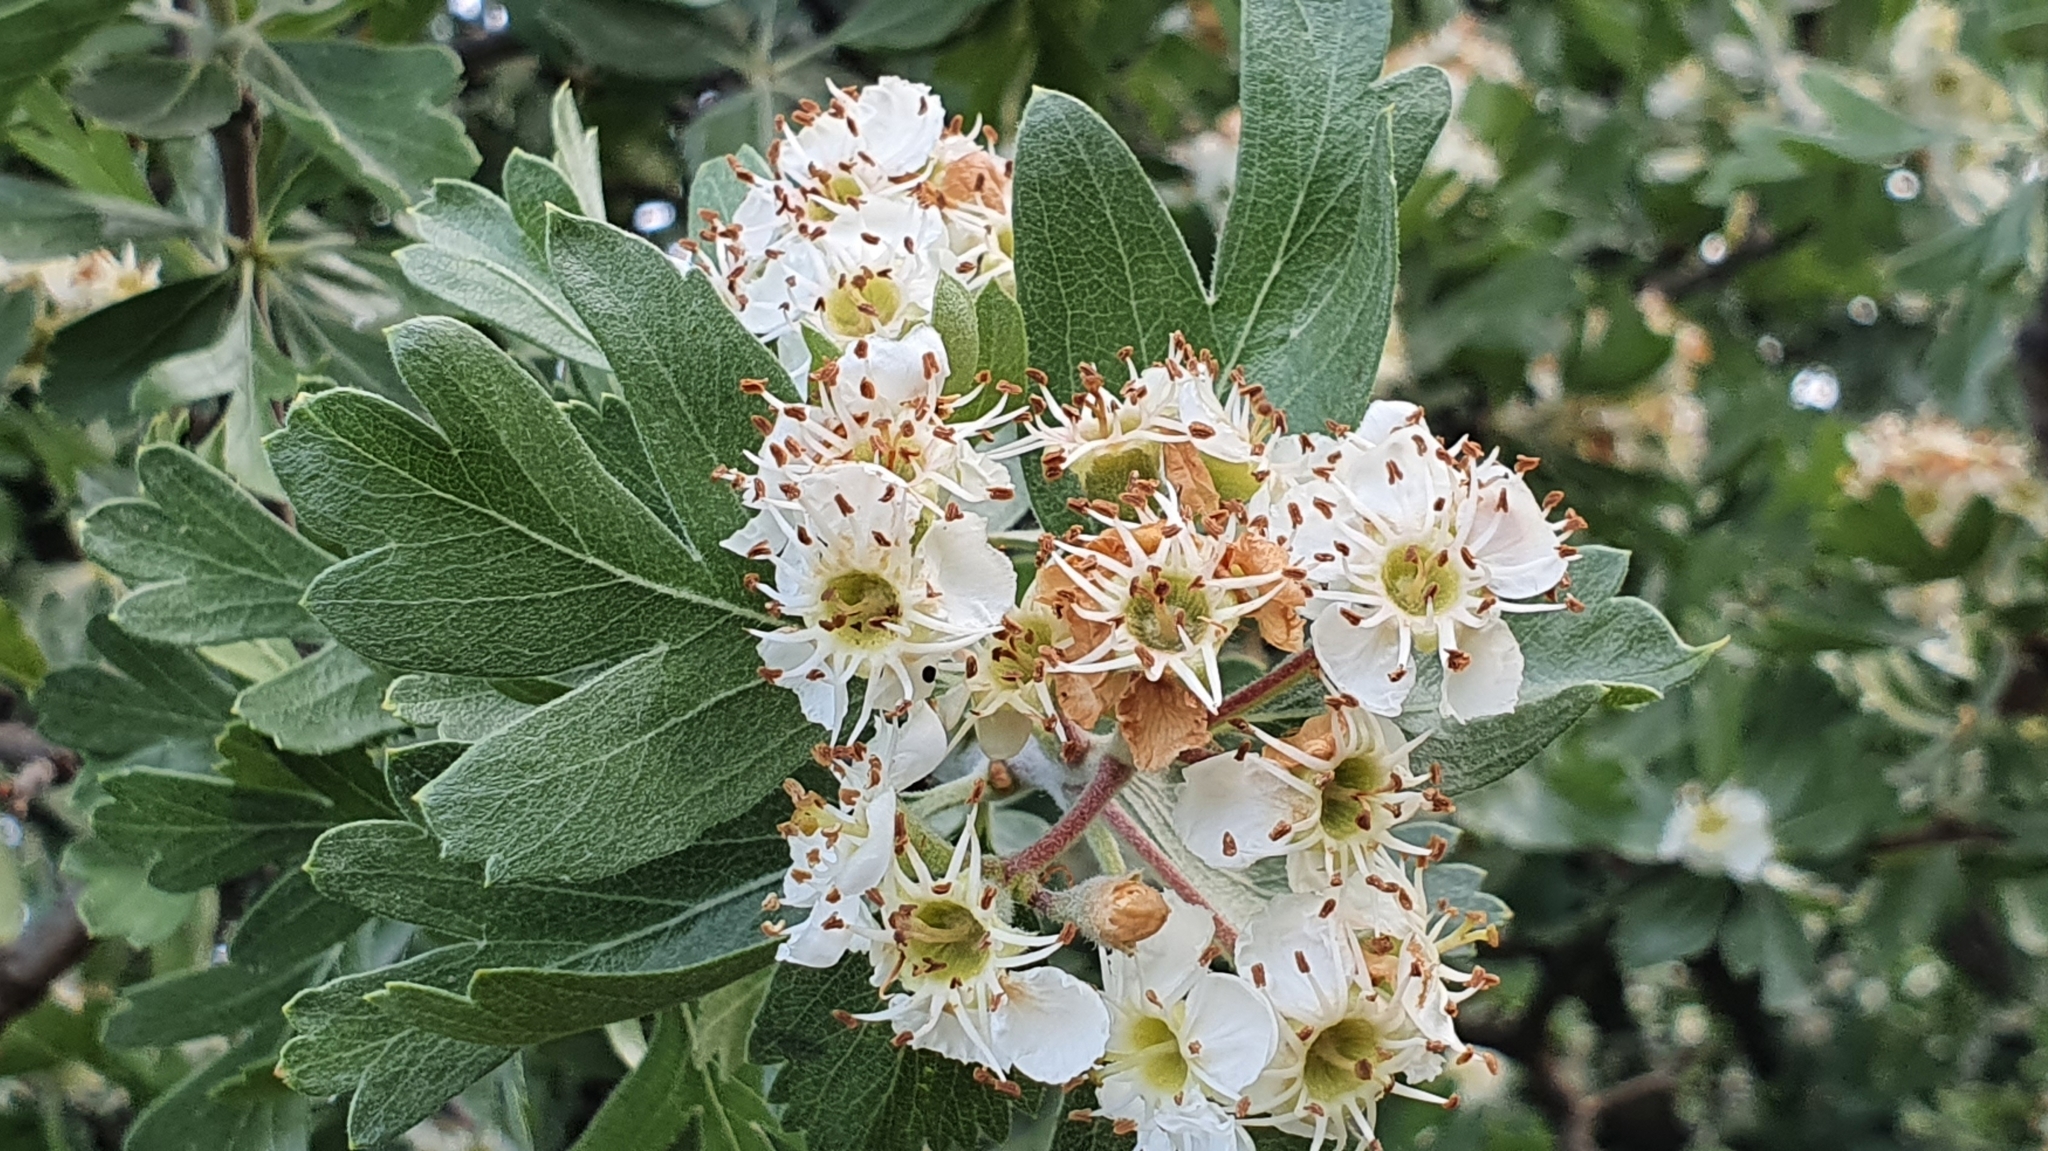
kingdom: Plantae
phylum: Tracheophyta
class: Magnoliopsida
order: Rosales
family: Rosaceae
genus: Crataegus
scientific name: Crataegus azarolus
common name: Azarole
